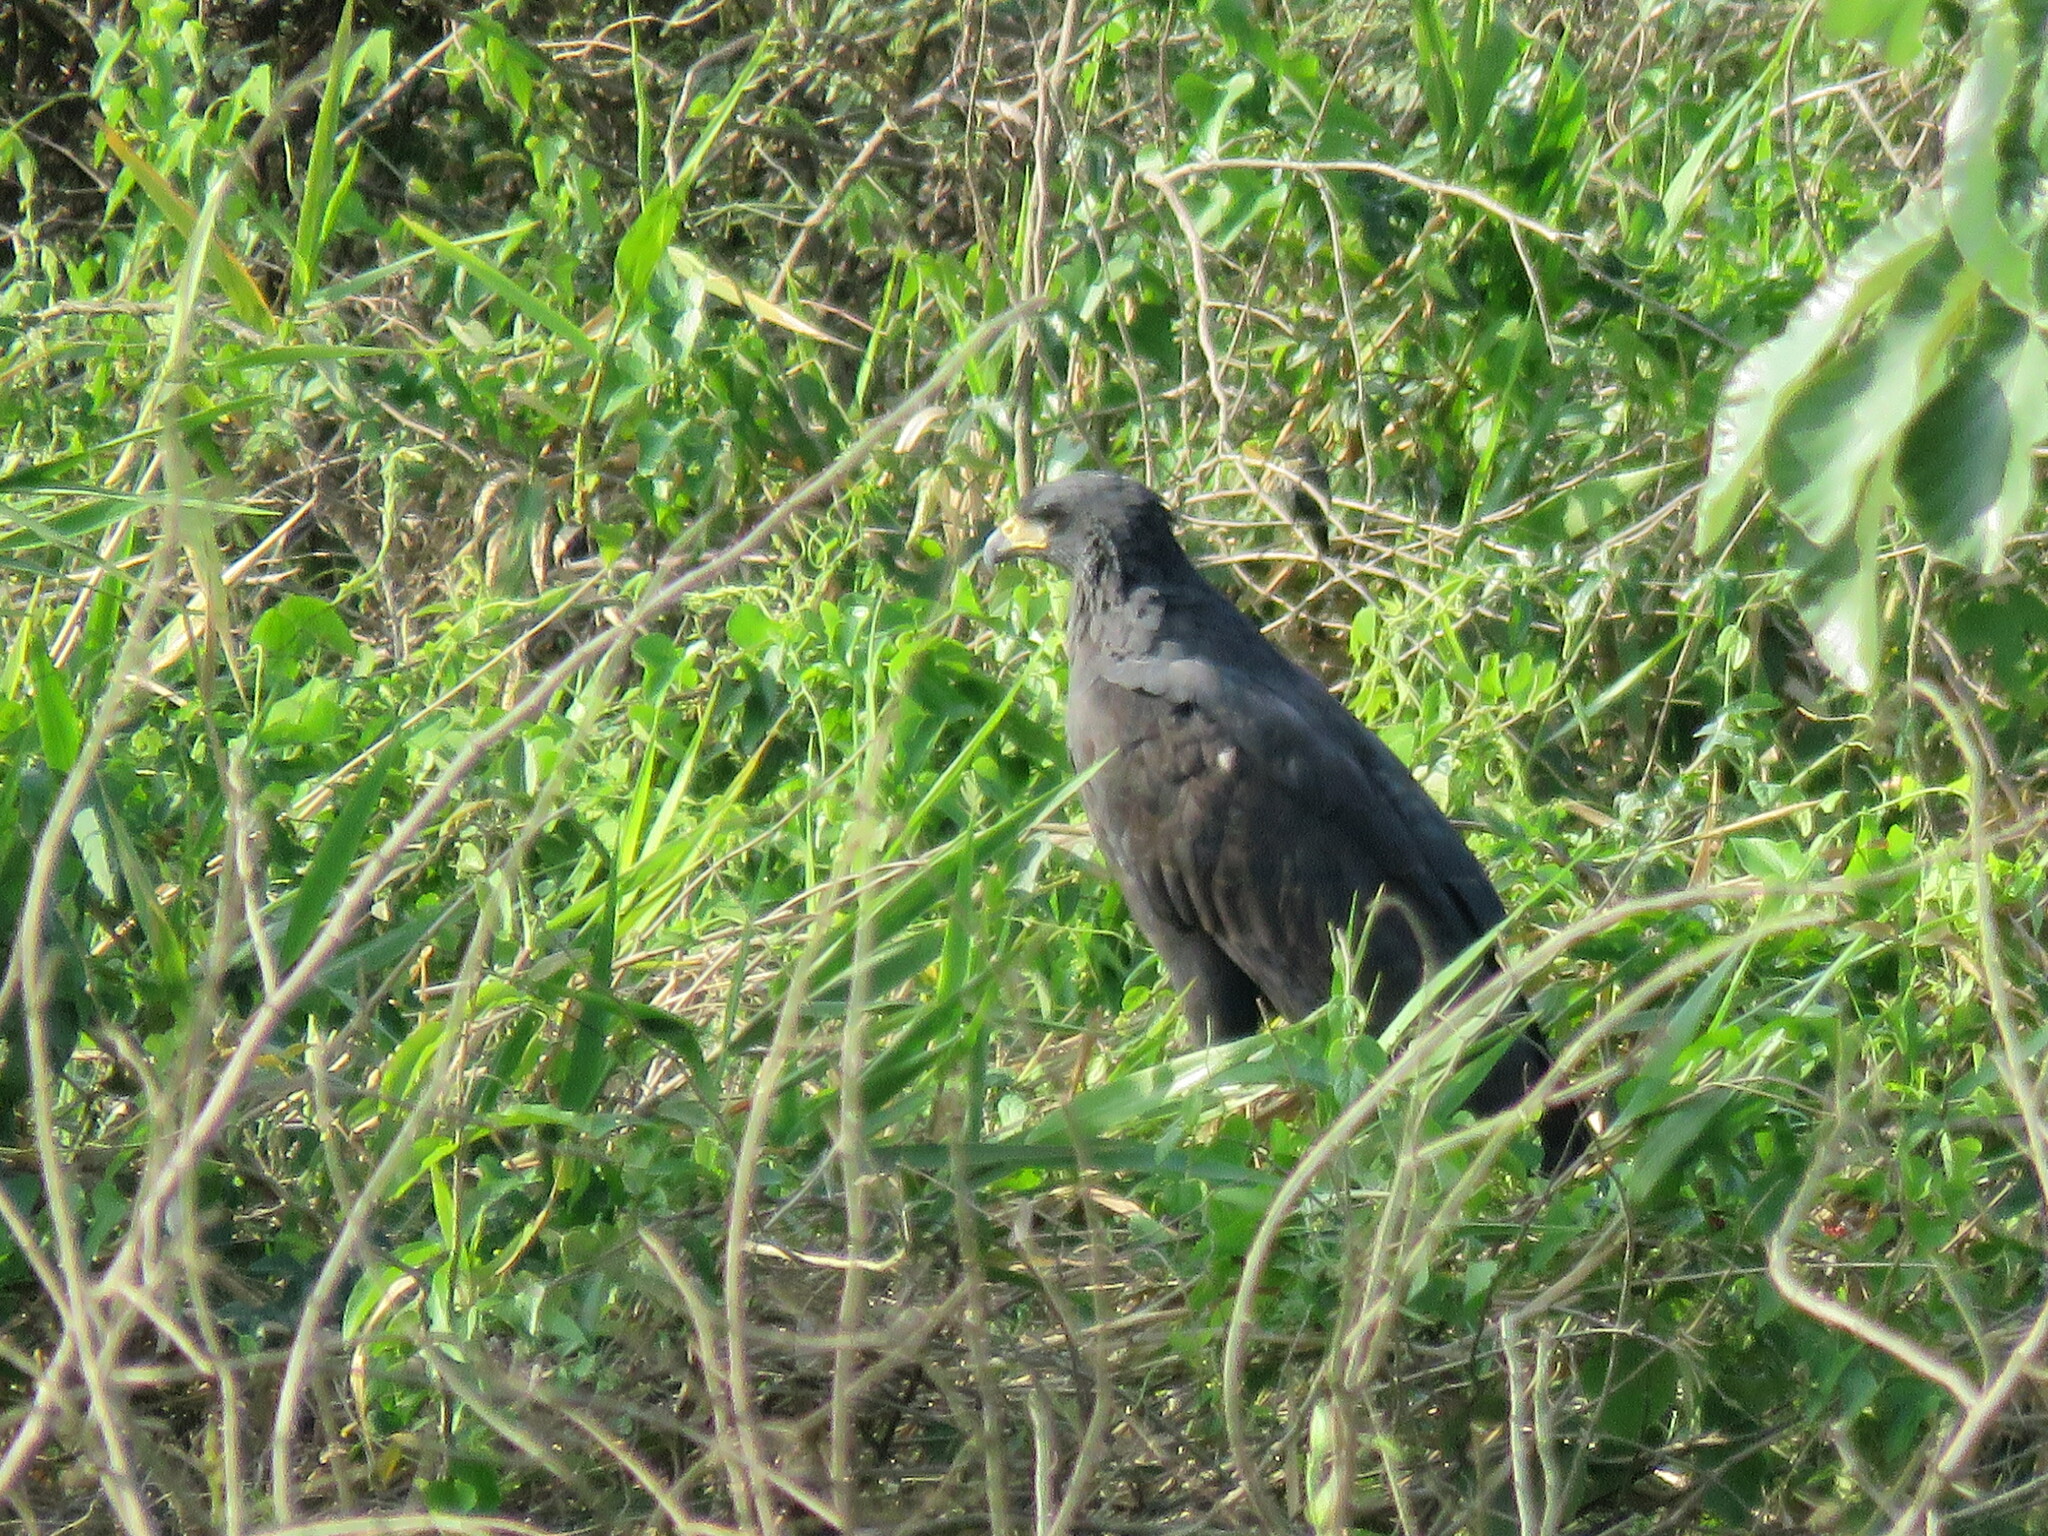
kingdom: Animalia
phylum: Chordata
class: Aves
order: Accipitriformes
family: Accipitridae
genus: Buteogallus
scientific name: Buteogallus urubitinga
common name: Great black hawk
